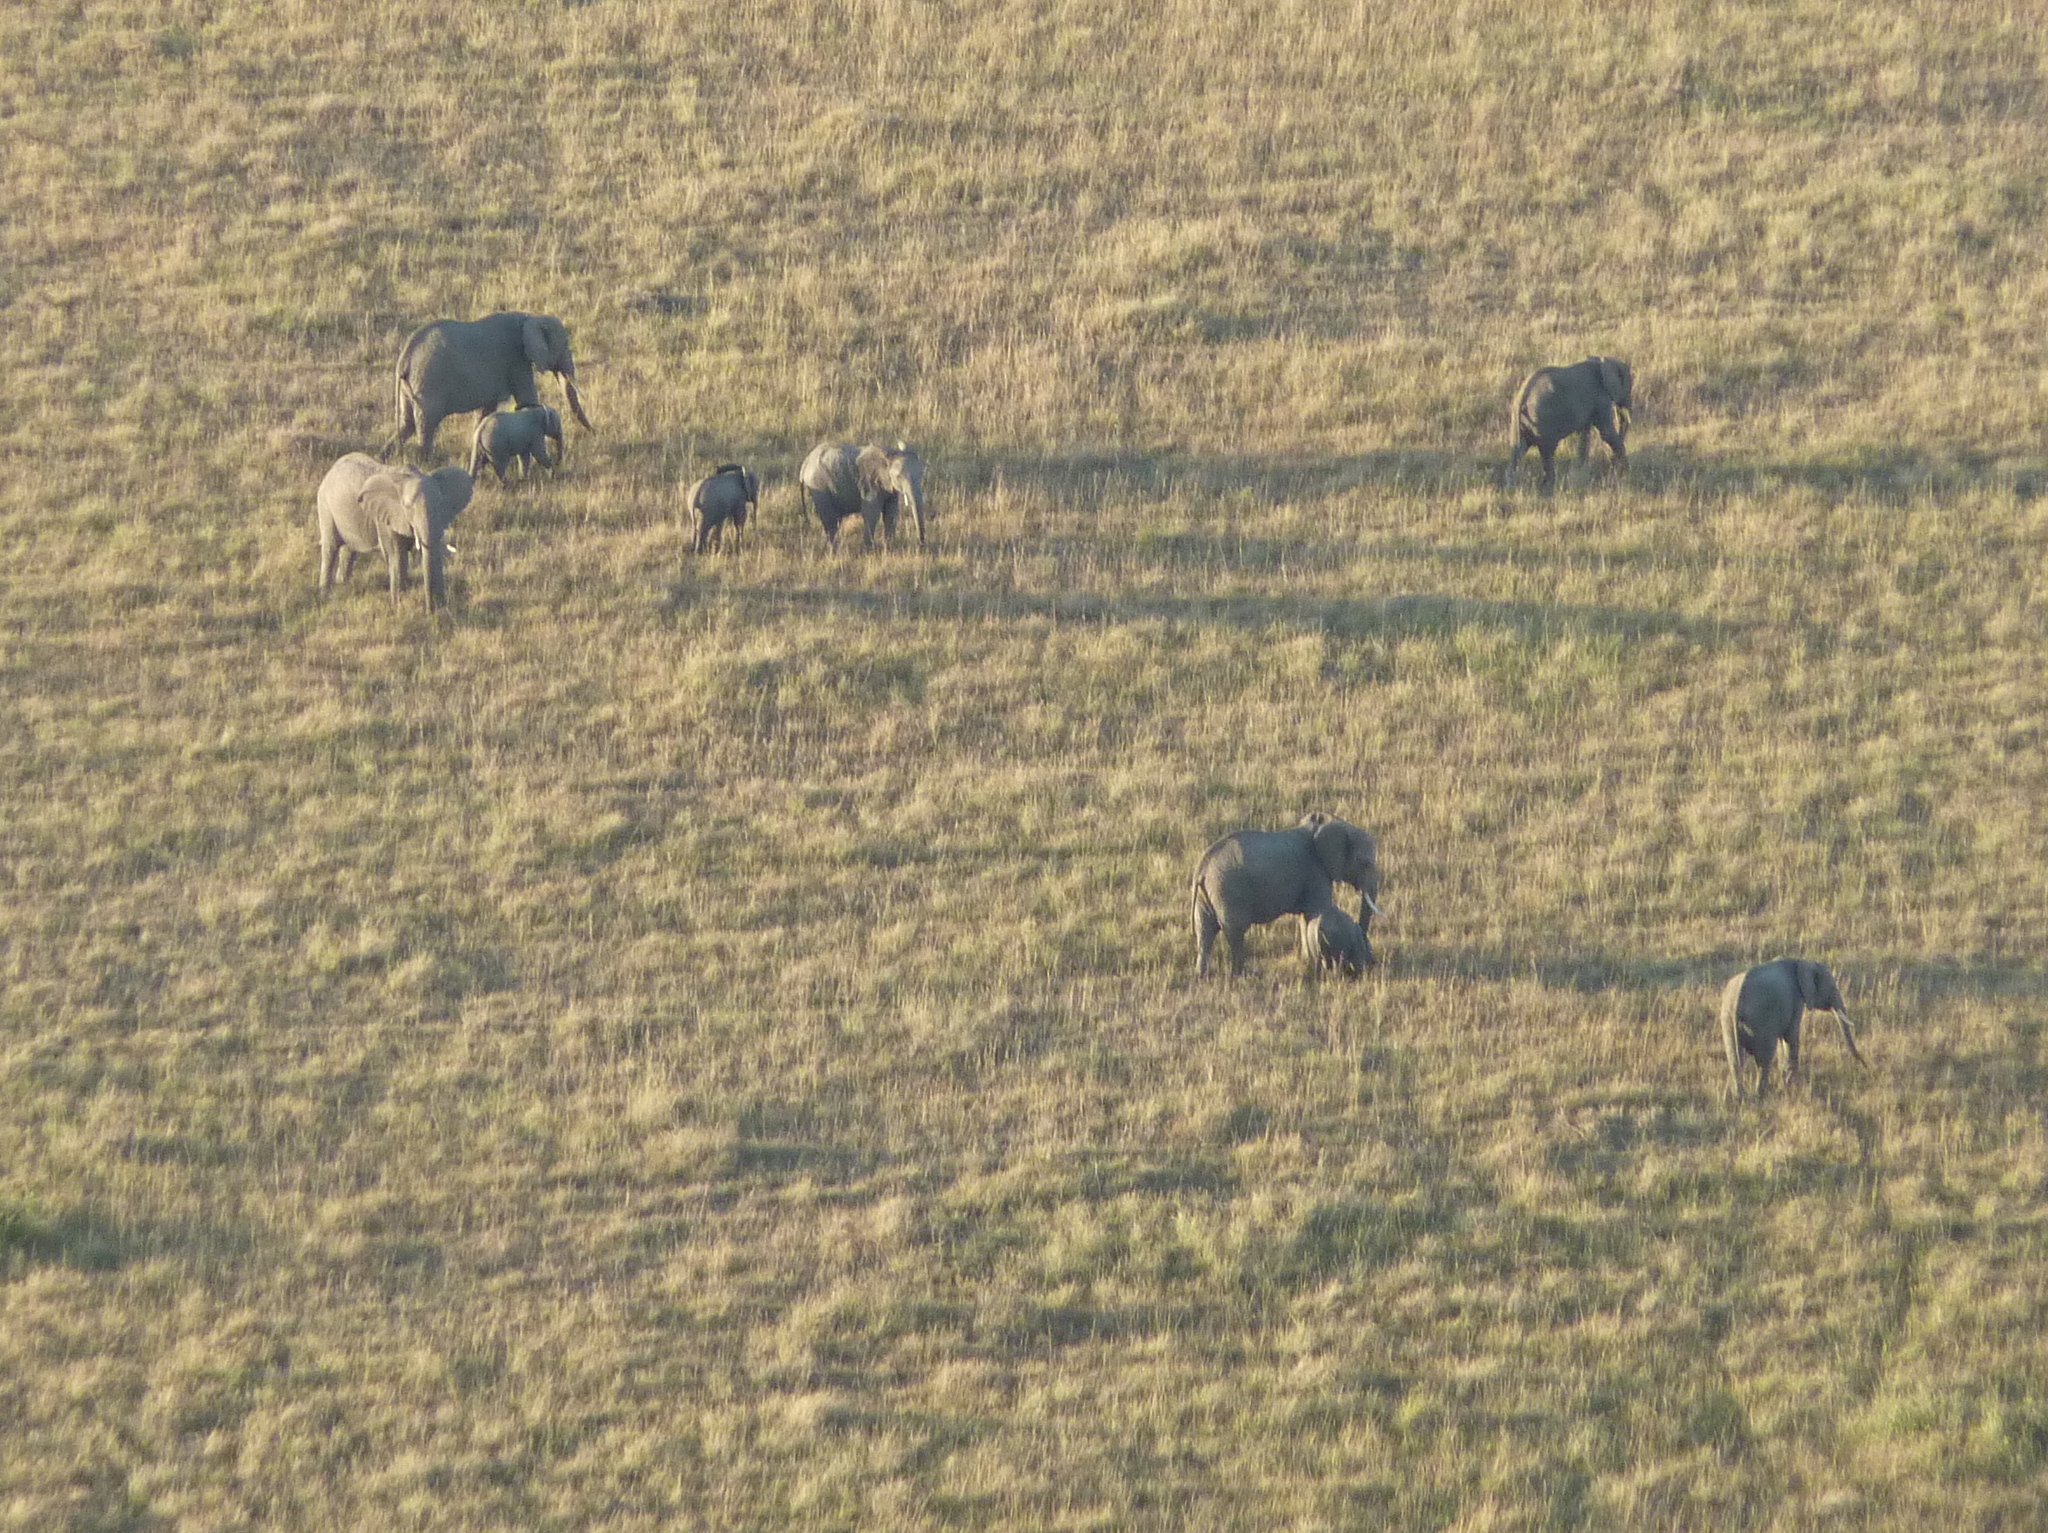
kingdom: Animalia
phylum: Chordata
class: Mammalia
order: Proboscidea
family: Elephantidae
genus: Loxodonta
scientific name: Loxodonta africana
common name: African elephant
